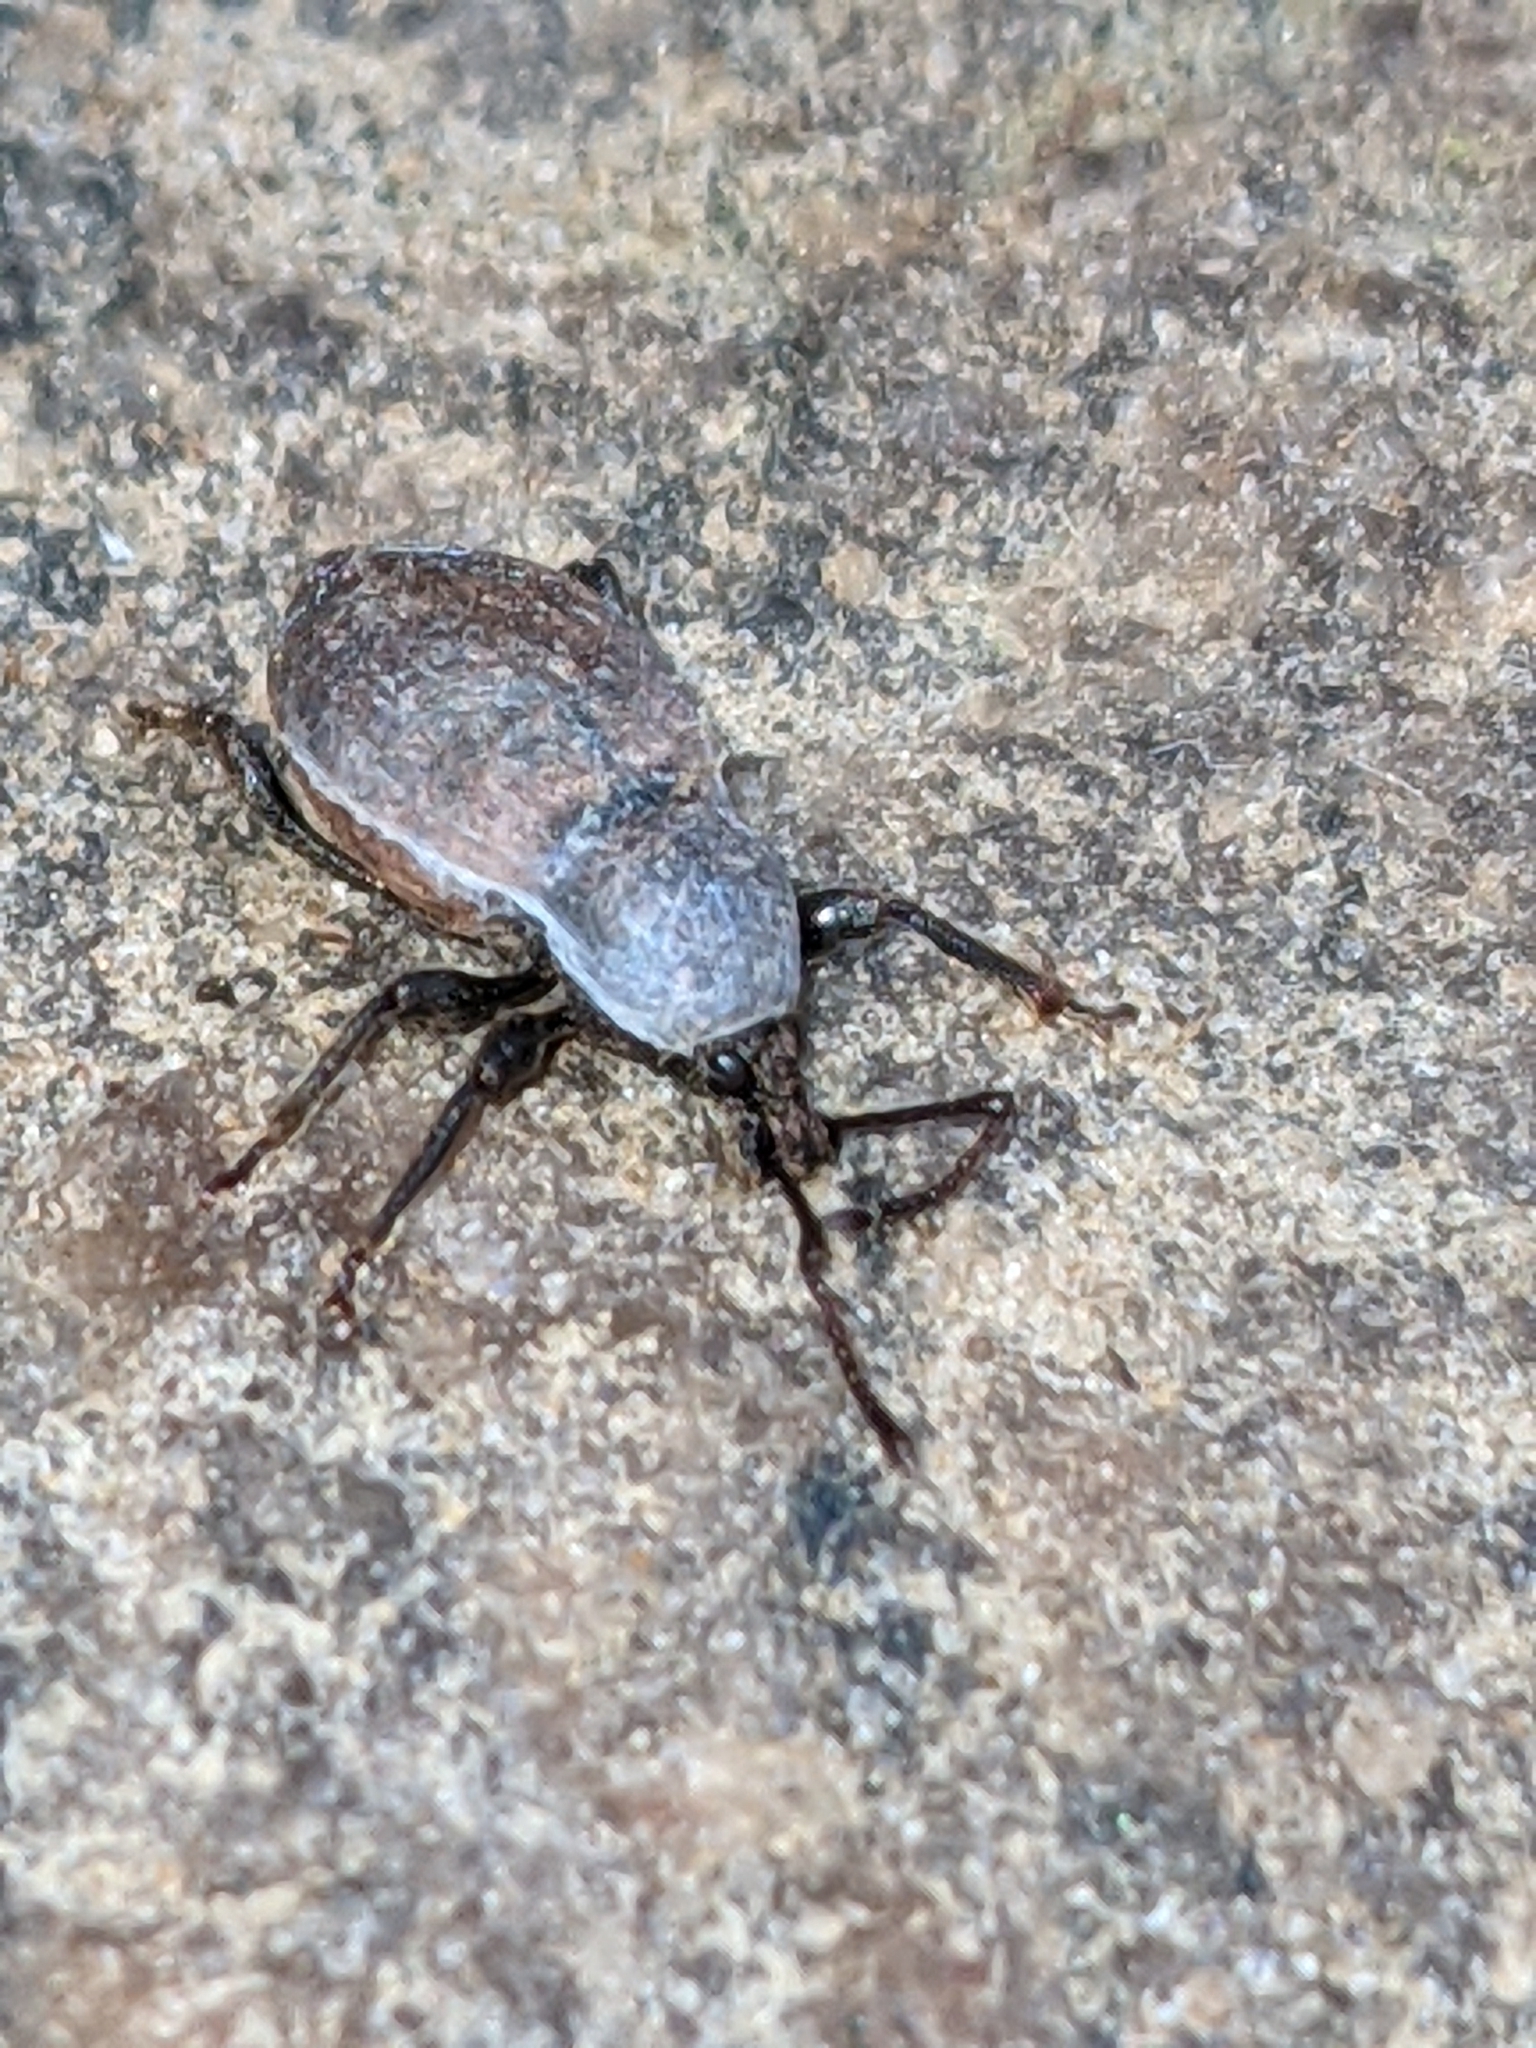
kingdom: Animalia
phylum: Arthropoda
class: Insecta
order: Coleoptera
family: Curculionidae
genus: Otiorhynchus
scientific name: Otiorhynchus raucus
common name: Weevil
